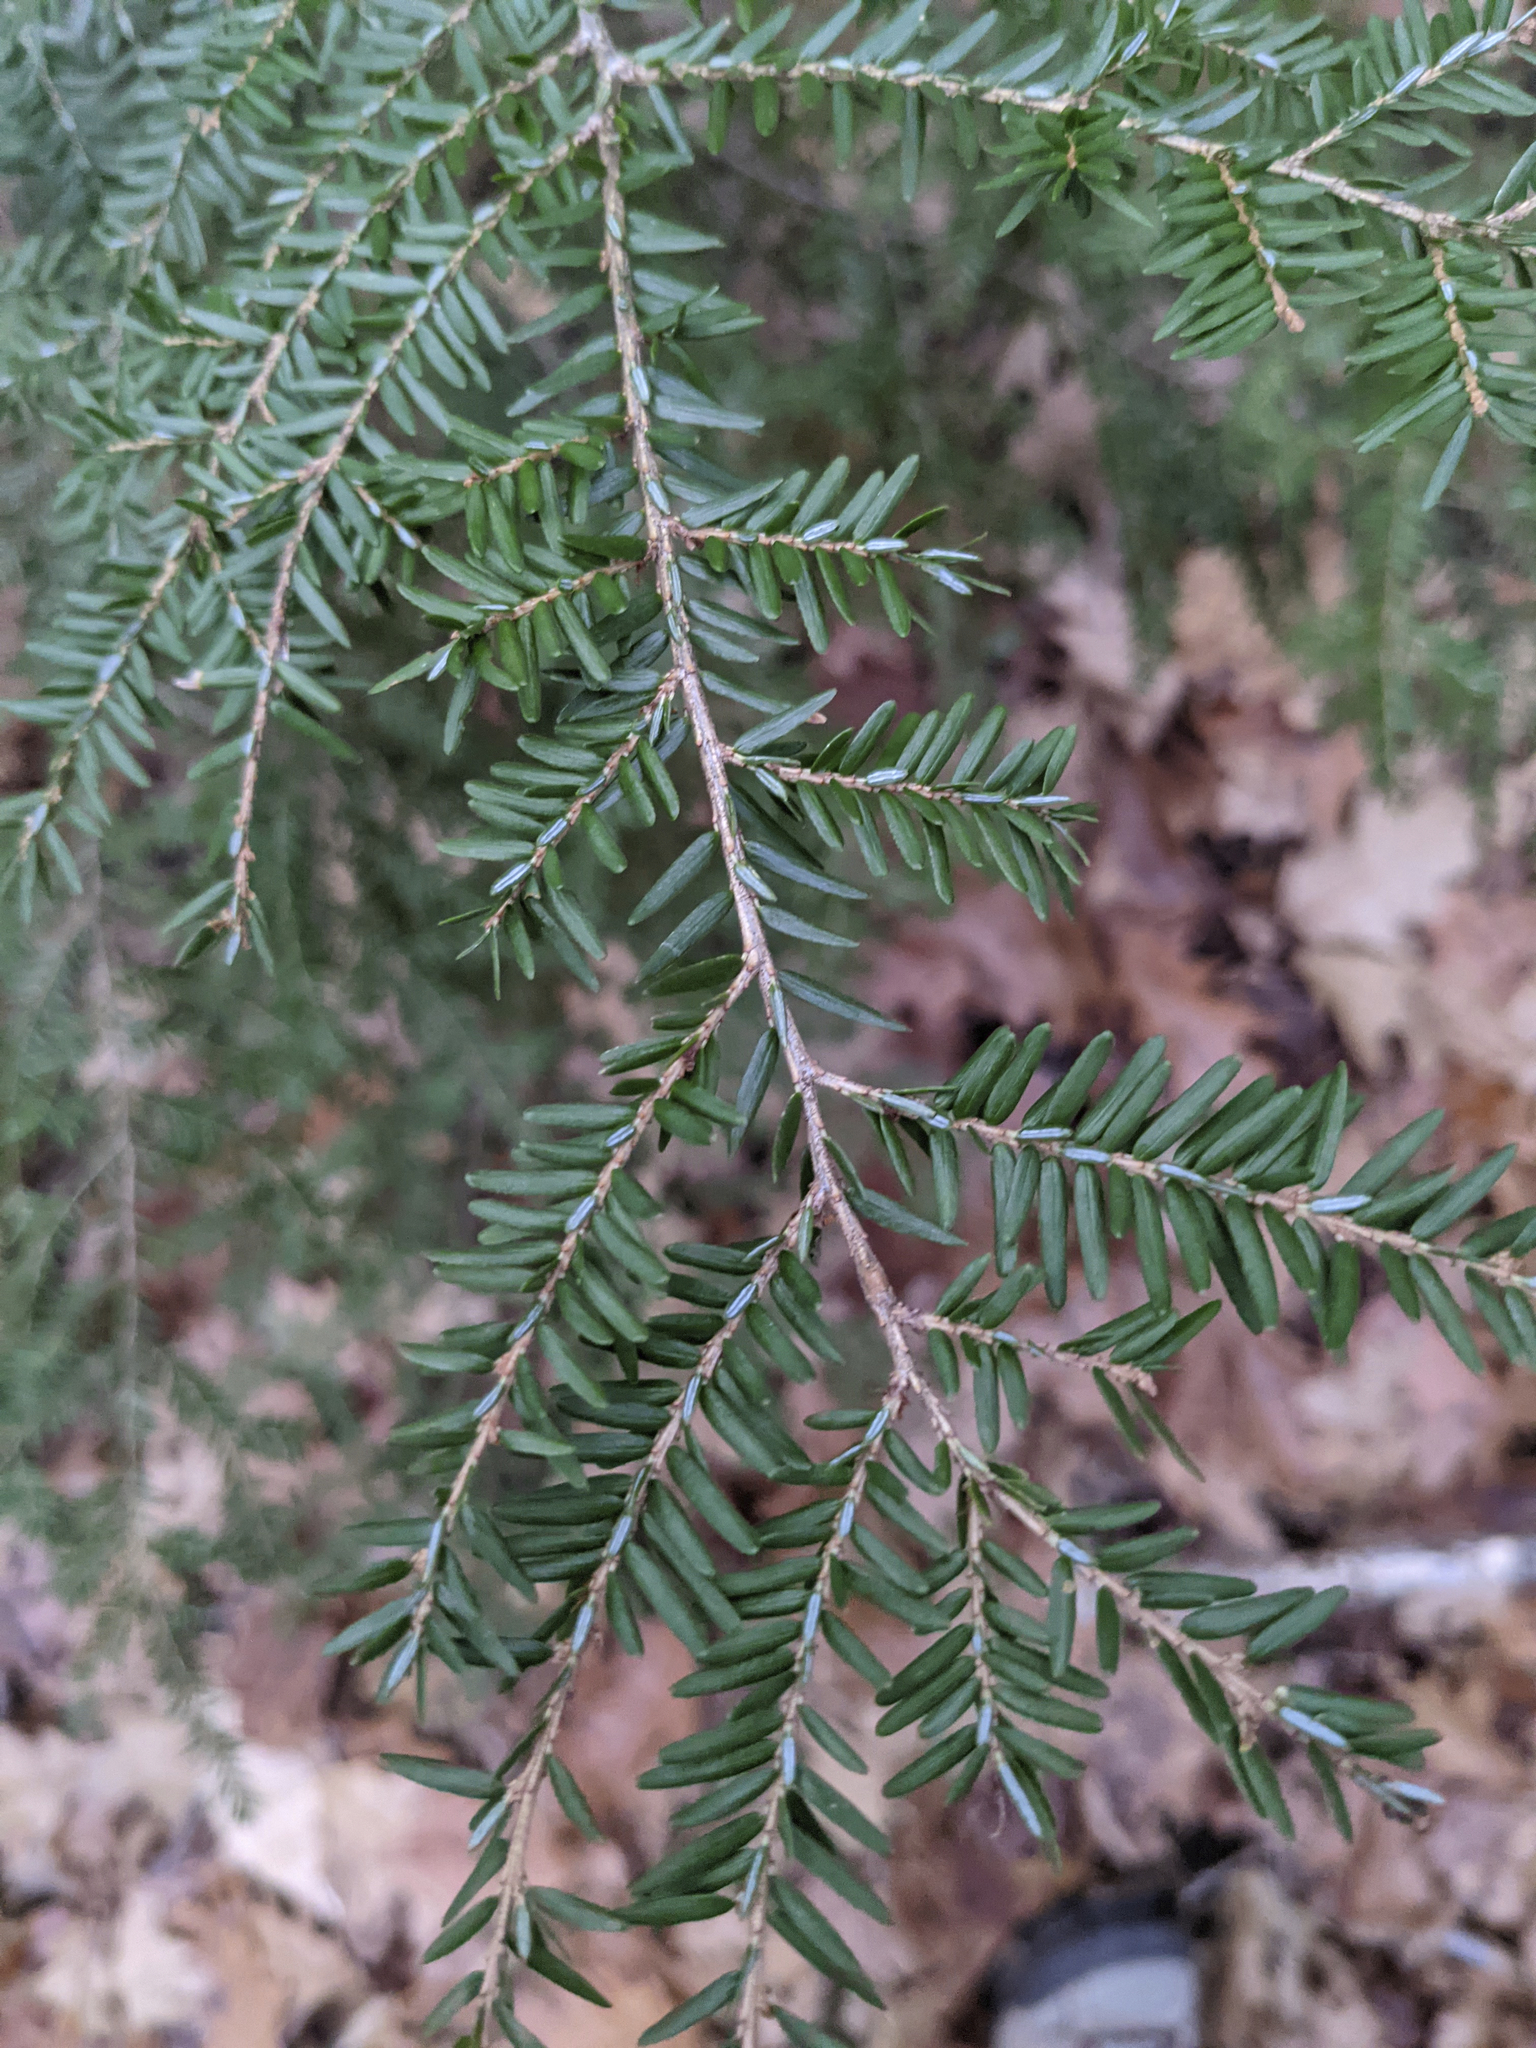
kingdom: Plantae
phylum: Tracheophyta
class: Pinopsida
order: Pinales
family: Pinaceae
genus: Tsuga
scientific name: Tsuga canadensis
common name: Eastern hemlock
